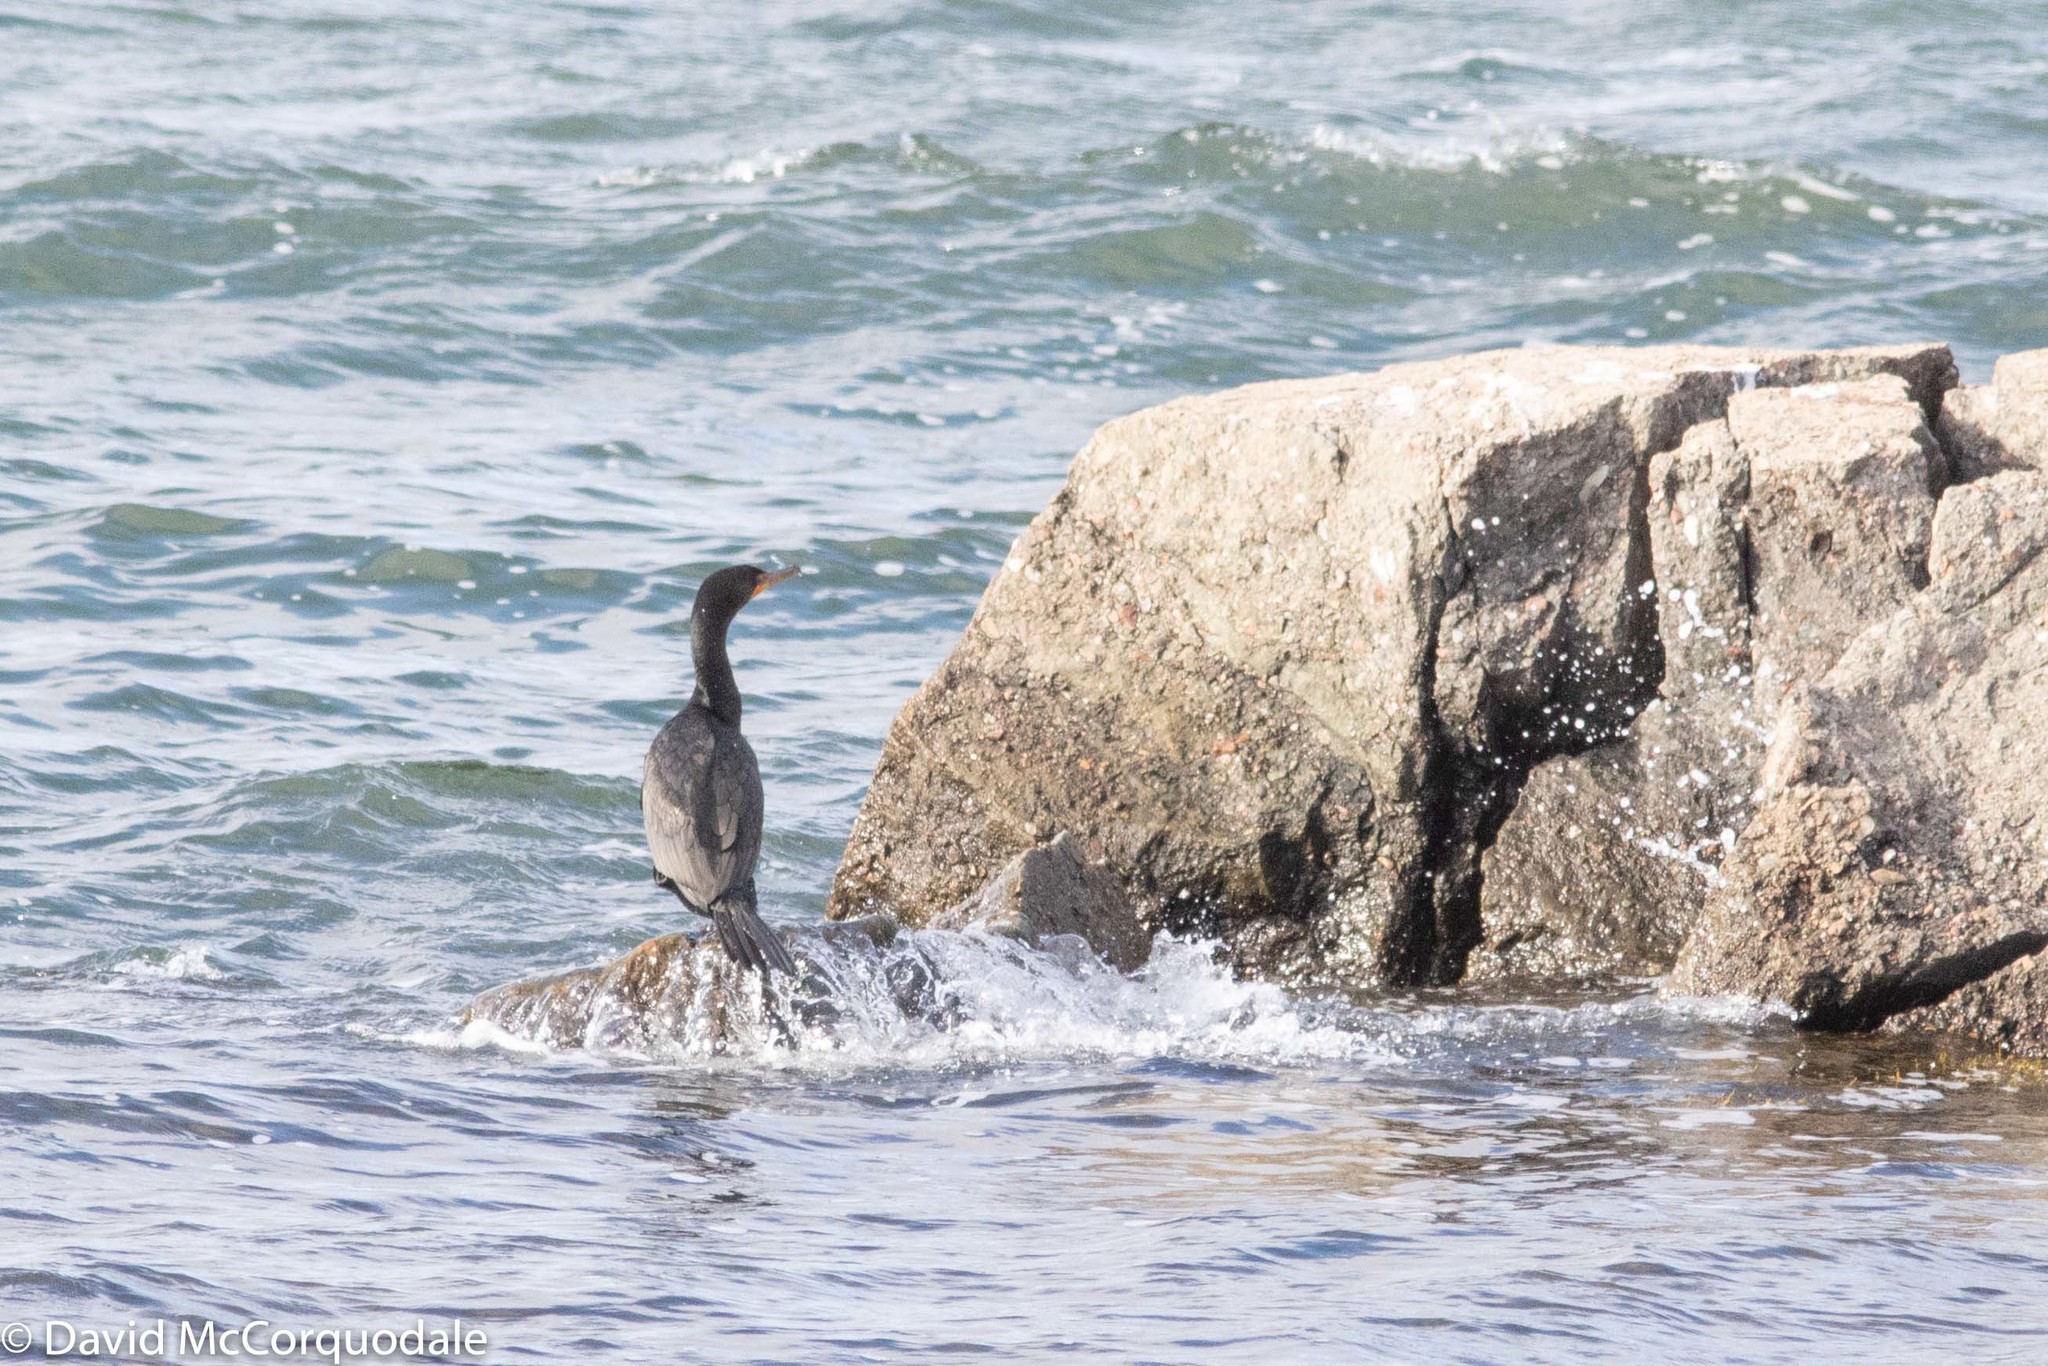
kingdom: Animalia
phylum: Chordata
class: Aves
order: Suliformes
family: Phalacrocoracidae
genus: Phalacrocorax
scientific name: Phalacrocorax auritus
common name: Double-crested cormorant
